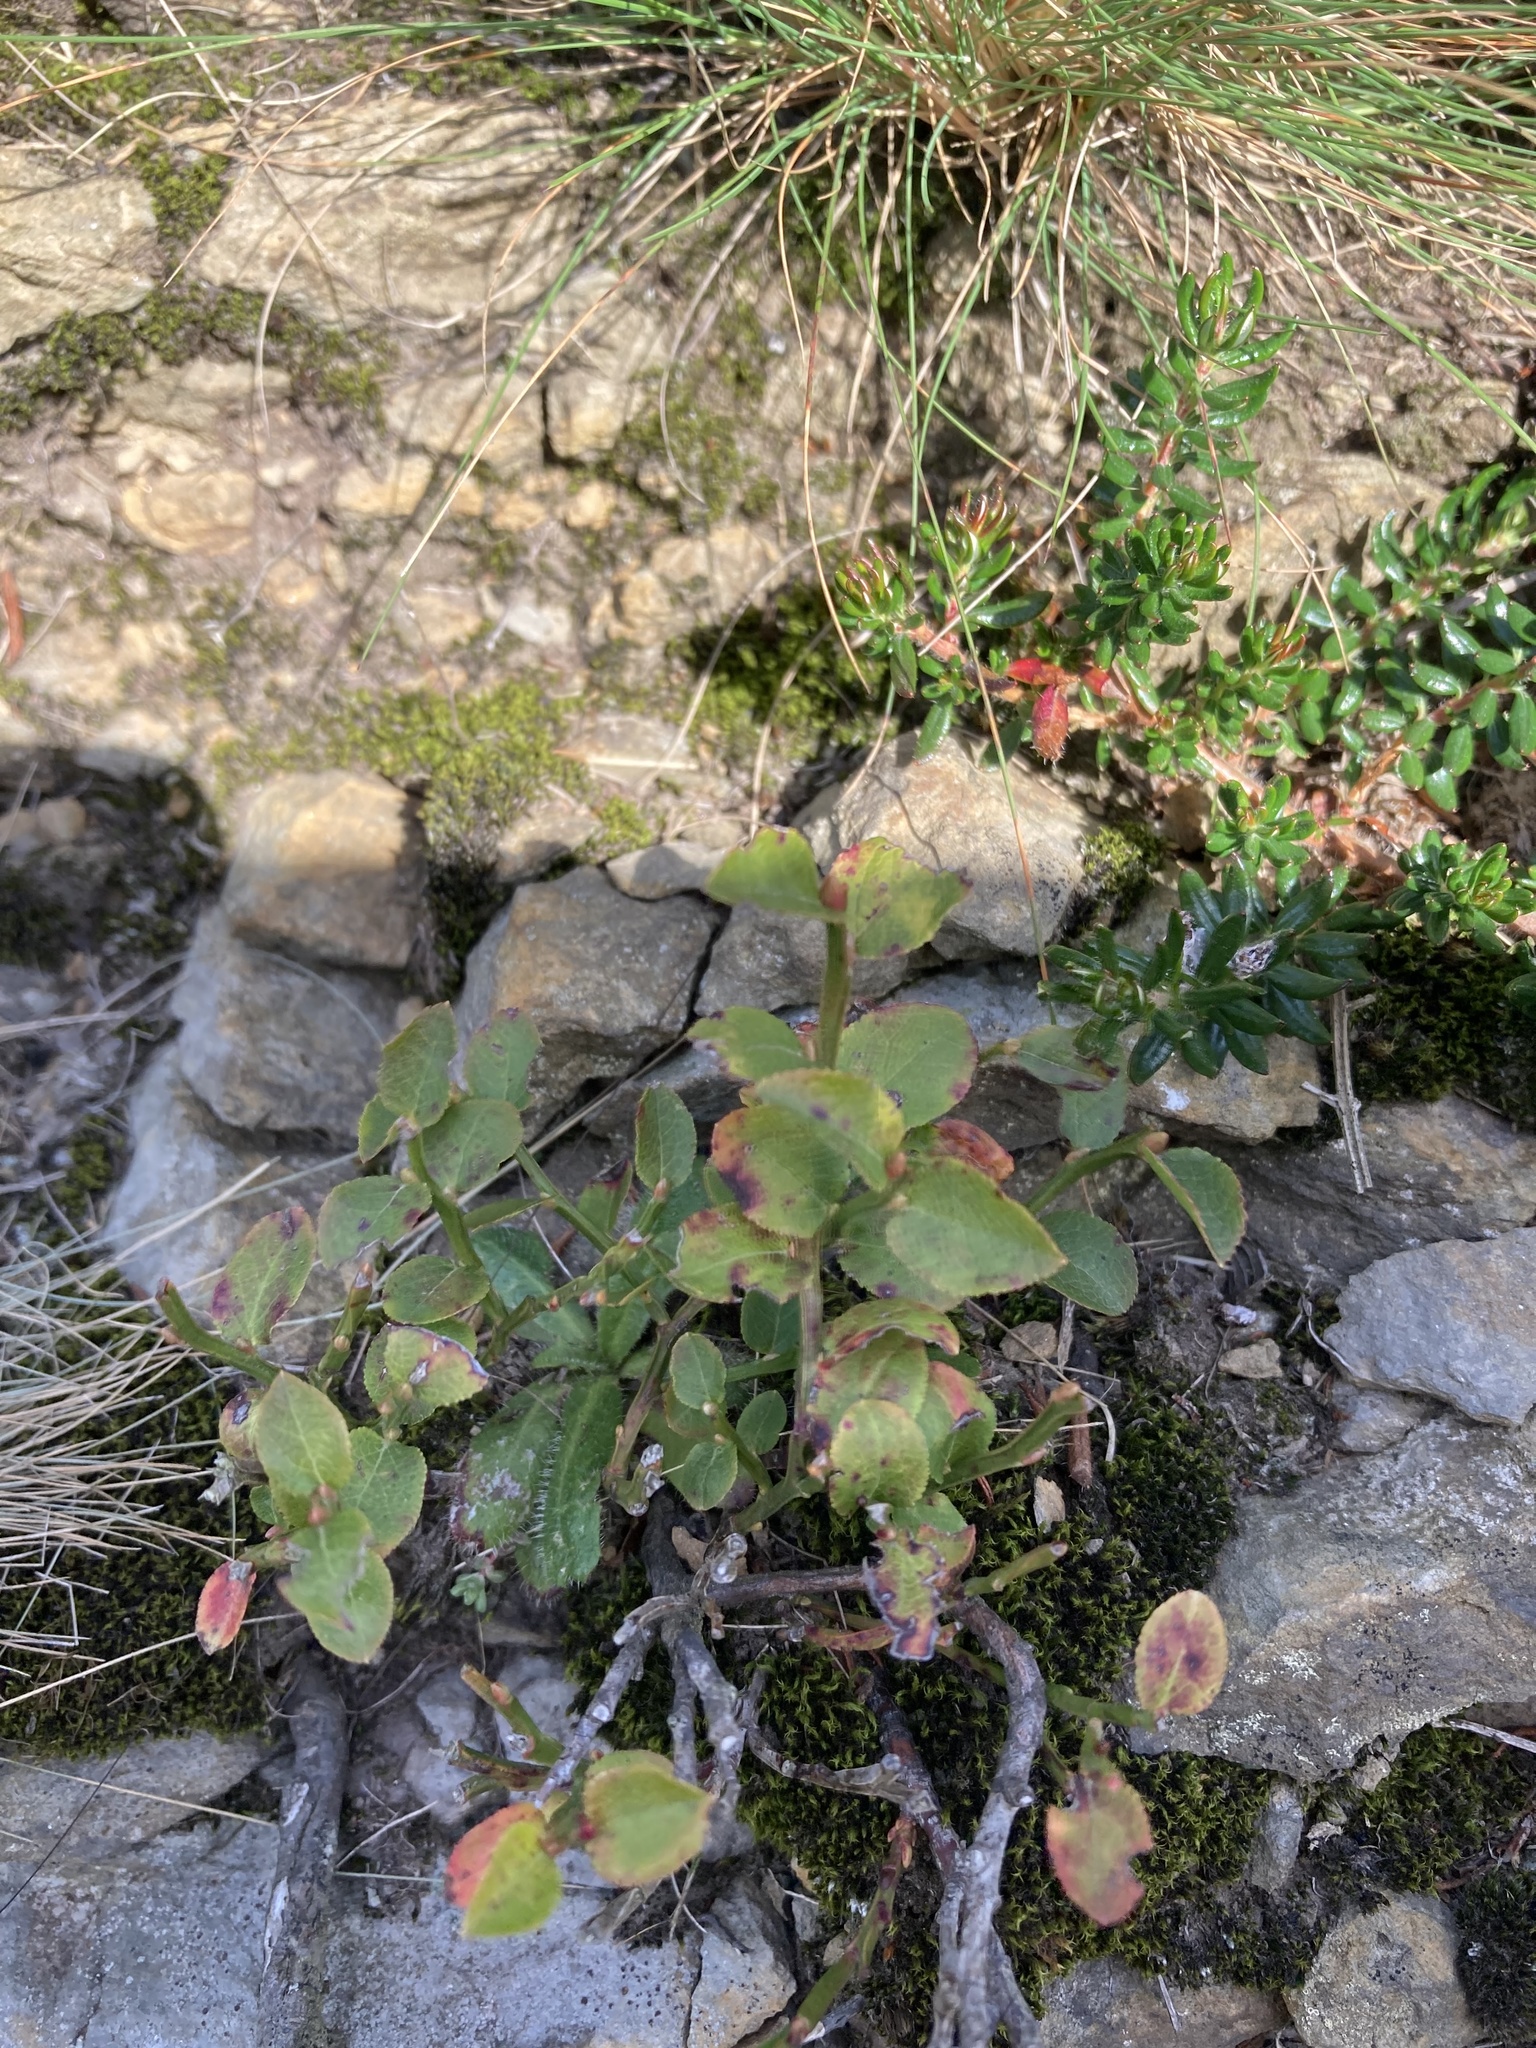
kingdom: Plantae
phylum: Tracheophyta
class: Magnoliopsida
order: Ericales
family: Ericaceae
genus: Vaccinium
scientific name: Vaccinium myrtillus
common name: Bilberry
